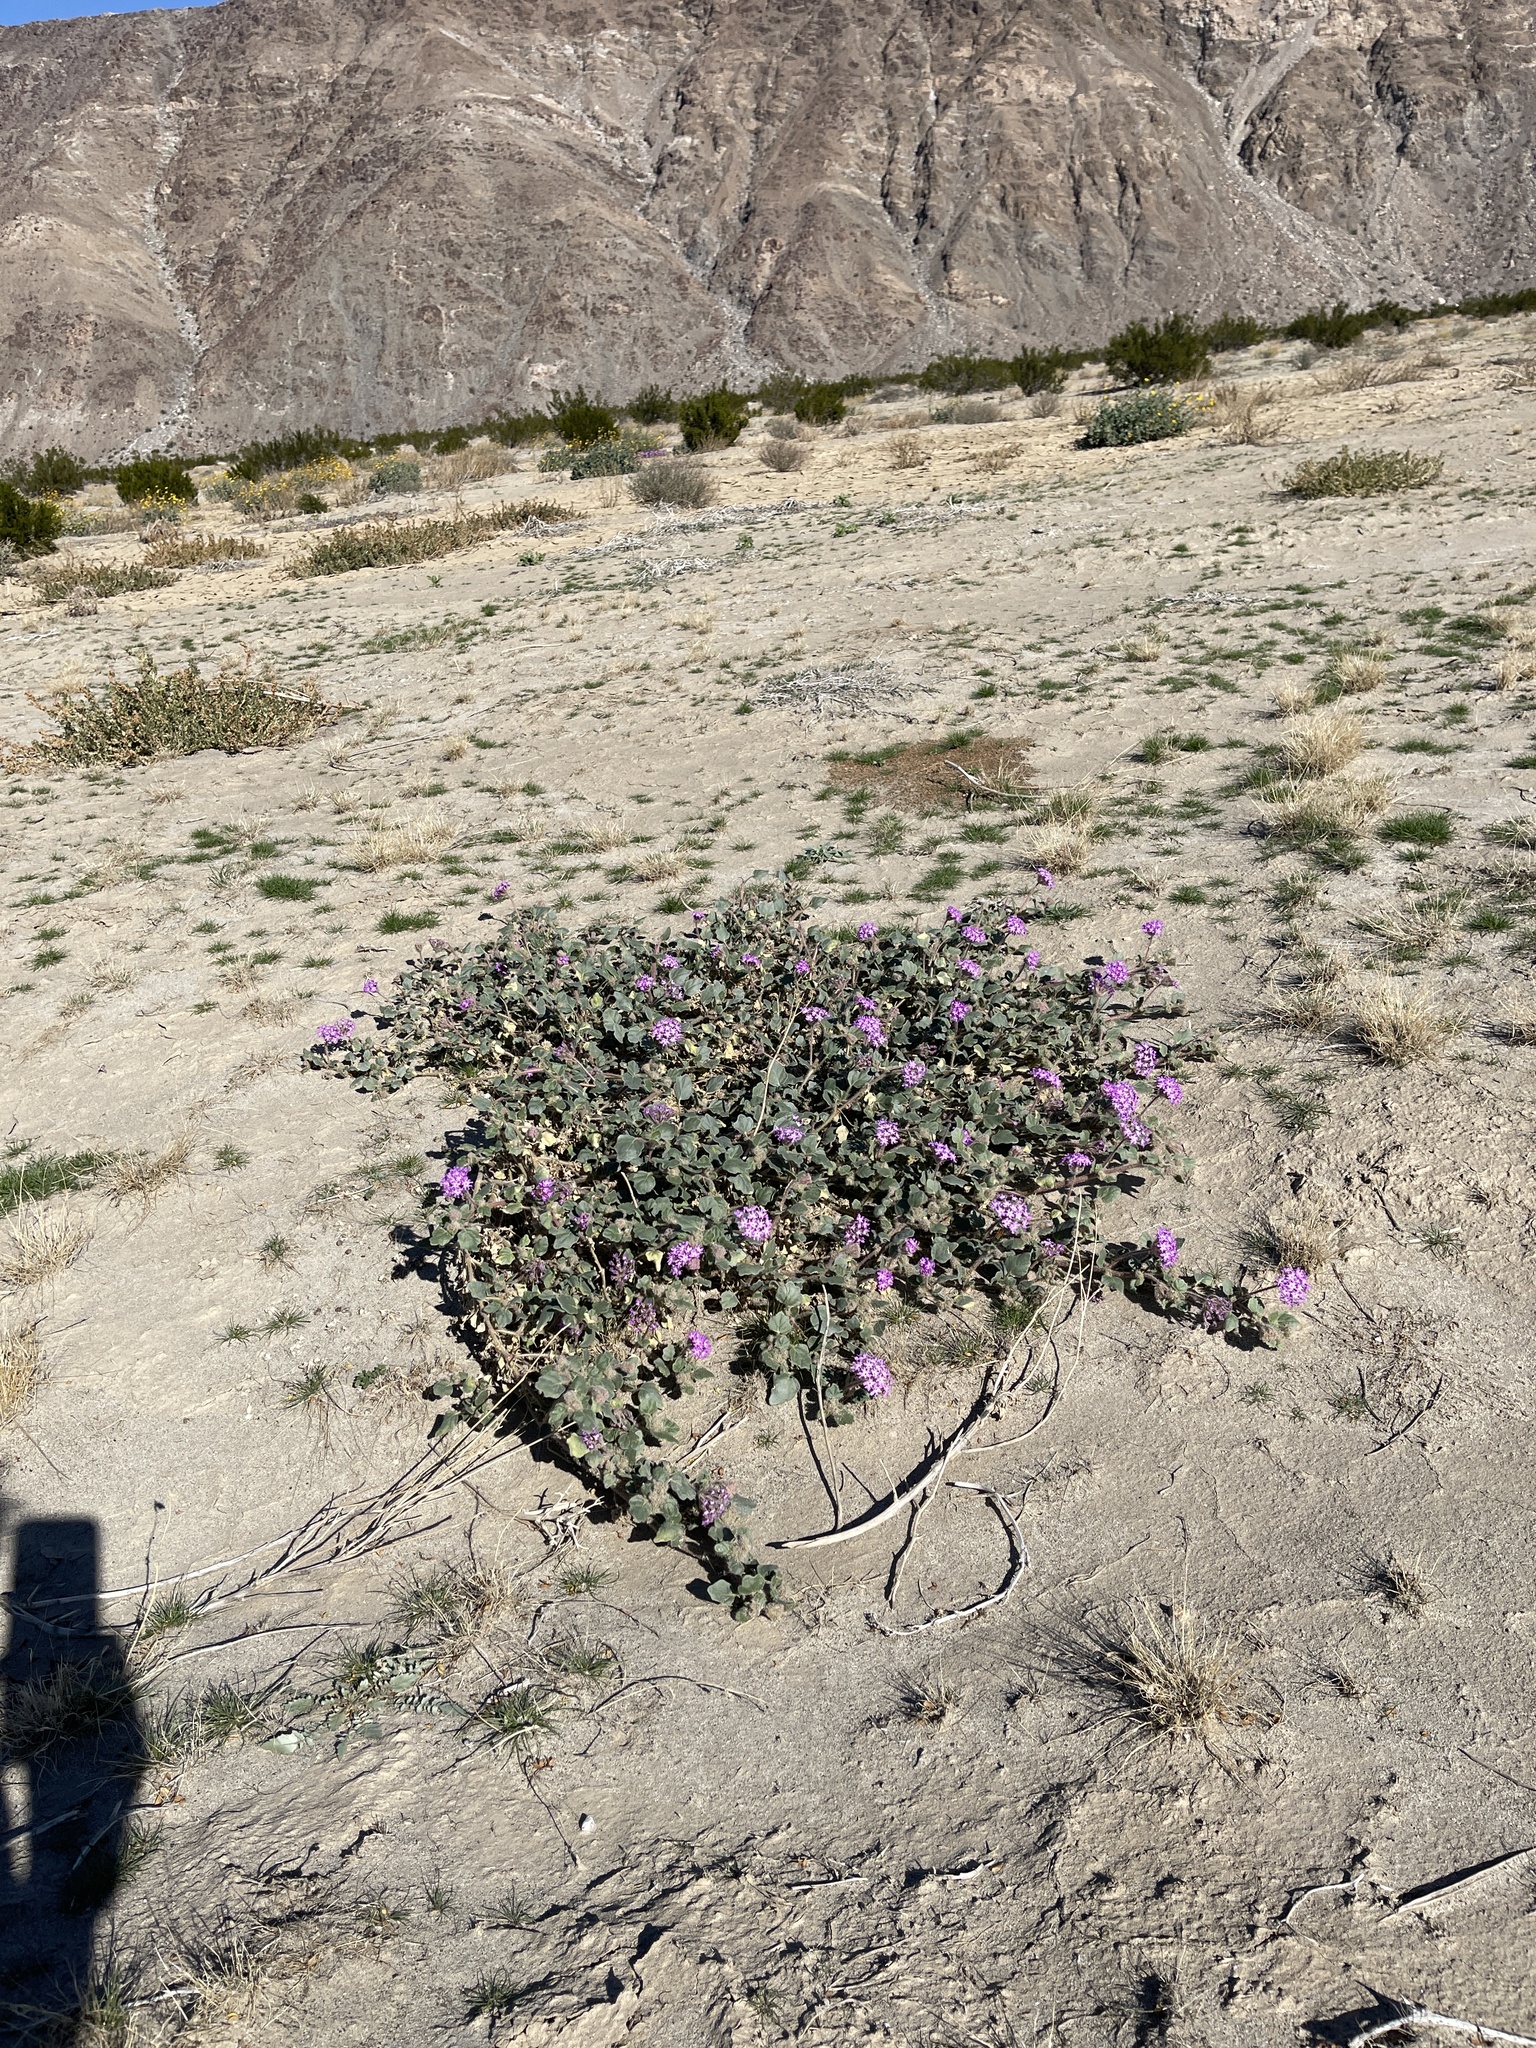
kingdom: Plantae
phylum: Tracheophyta
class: Magnoliopsida
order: Caryophyllales
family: Nyctaginaceae
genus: Abronia
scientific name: Abronia villosa
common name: Desert sand-verbena
